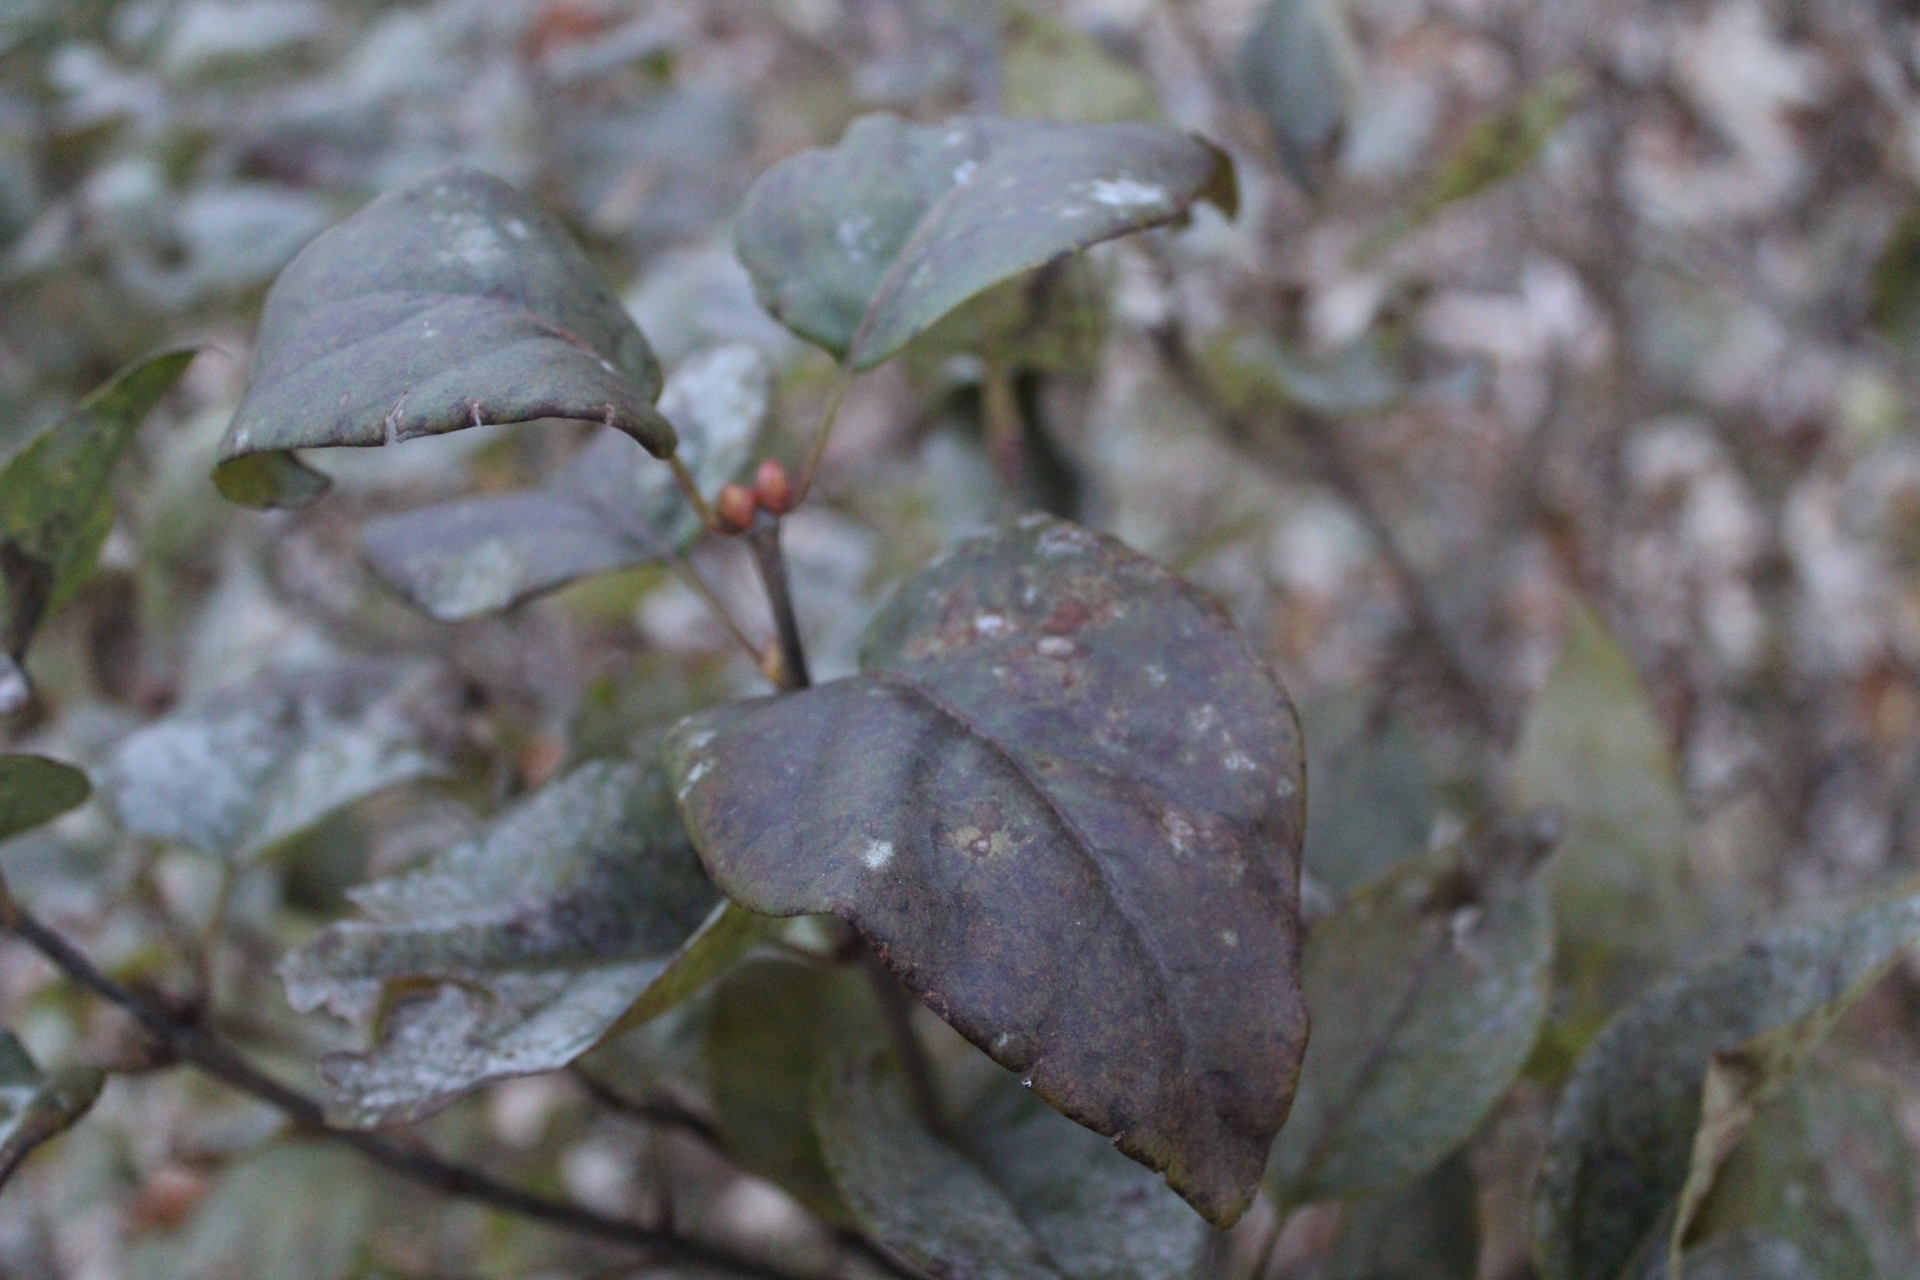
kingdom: Plantae
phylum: Tracheophyta
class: Magnoliopsida
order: Lamiales
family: Oleaceae
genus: Syringa
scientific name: Syringa vulgaris
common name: Common lilac
